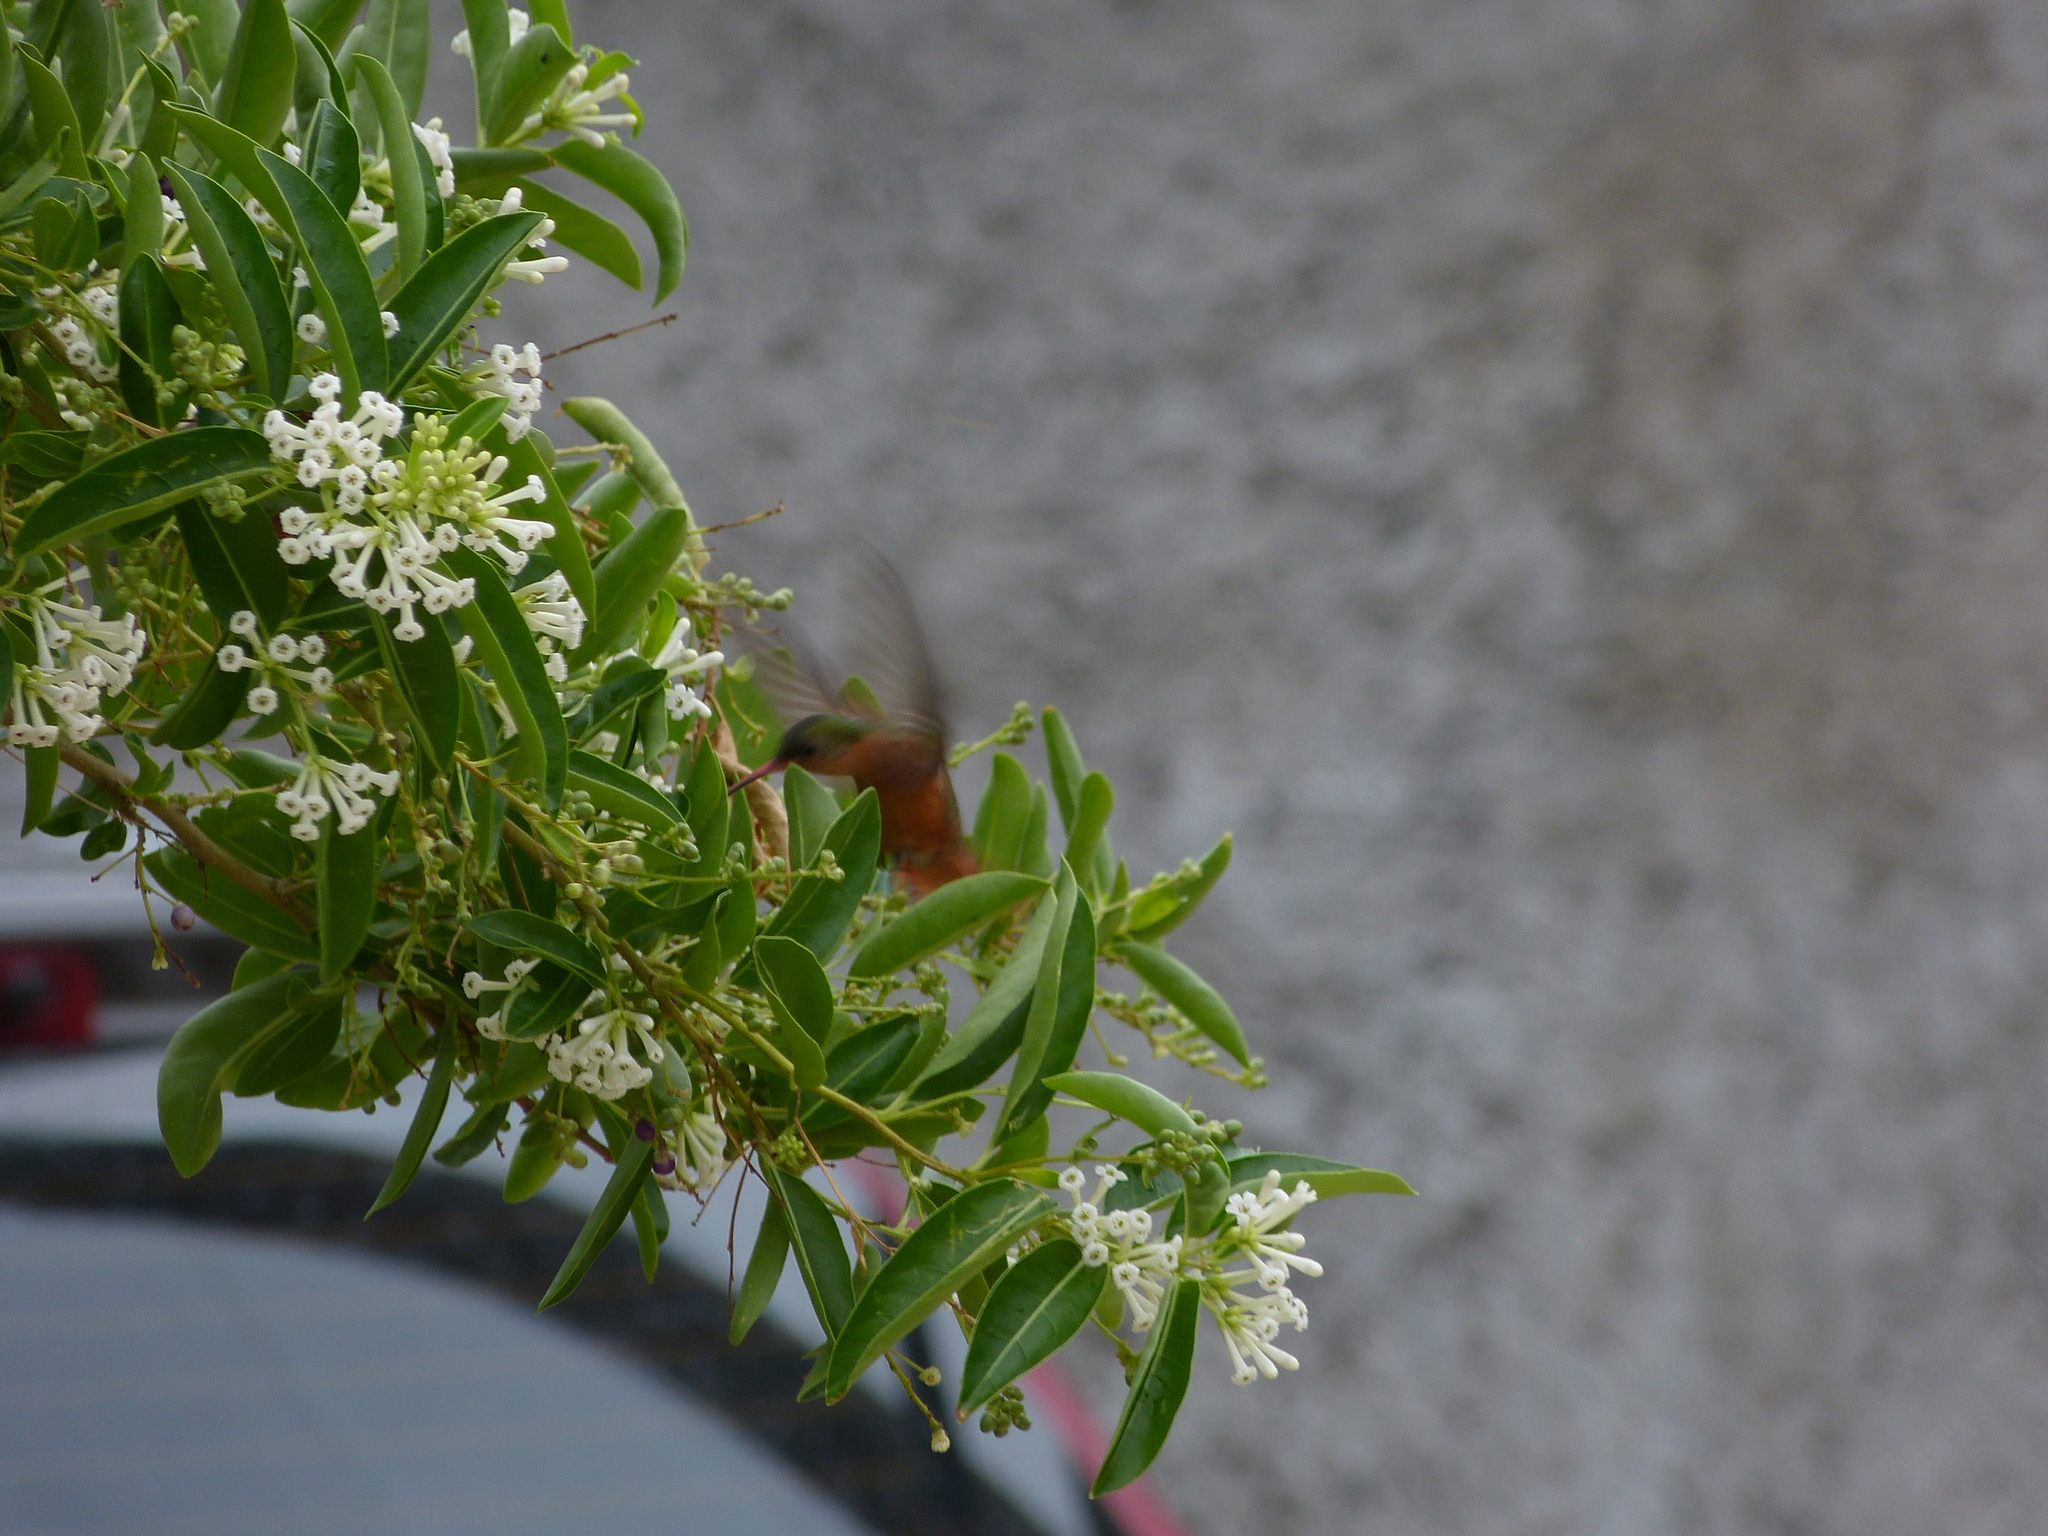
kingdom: Animalia
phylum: Chordata
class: Aves
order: Apodiformes
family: Trochilidae
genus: Amazilia
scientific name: Amazilia rutila
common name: Cinnamon hummingbird
